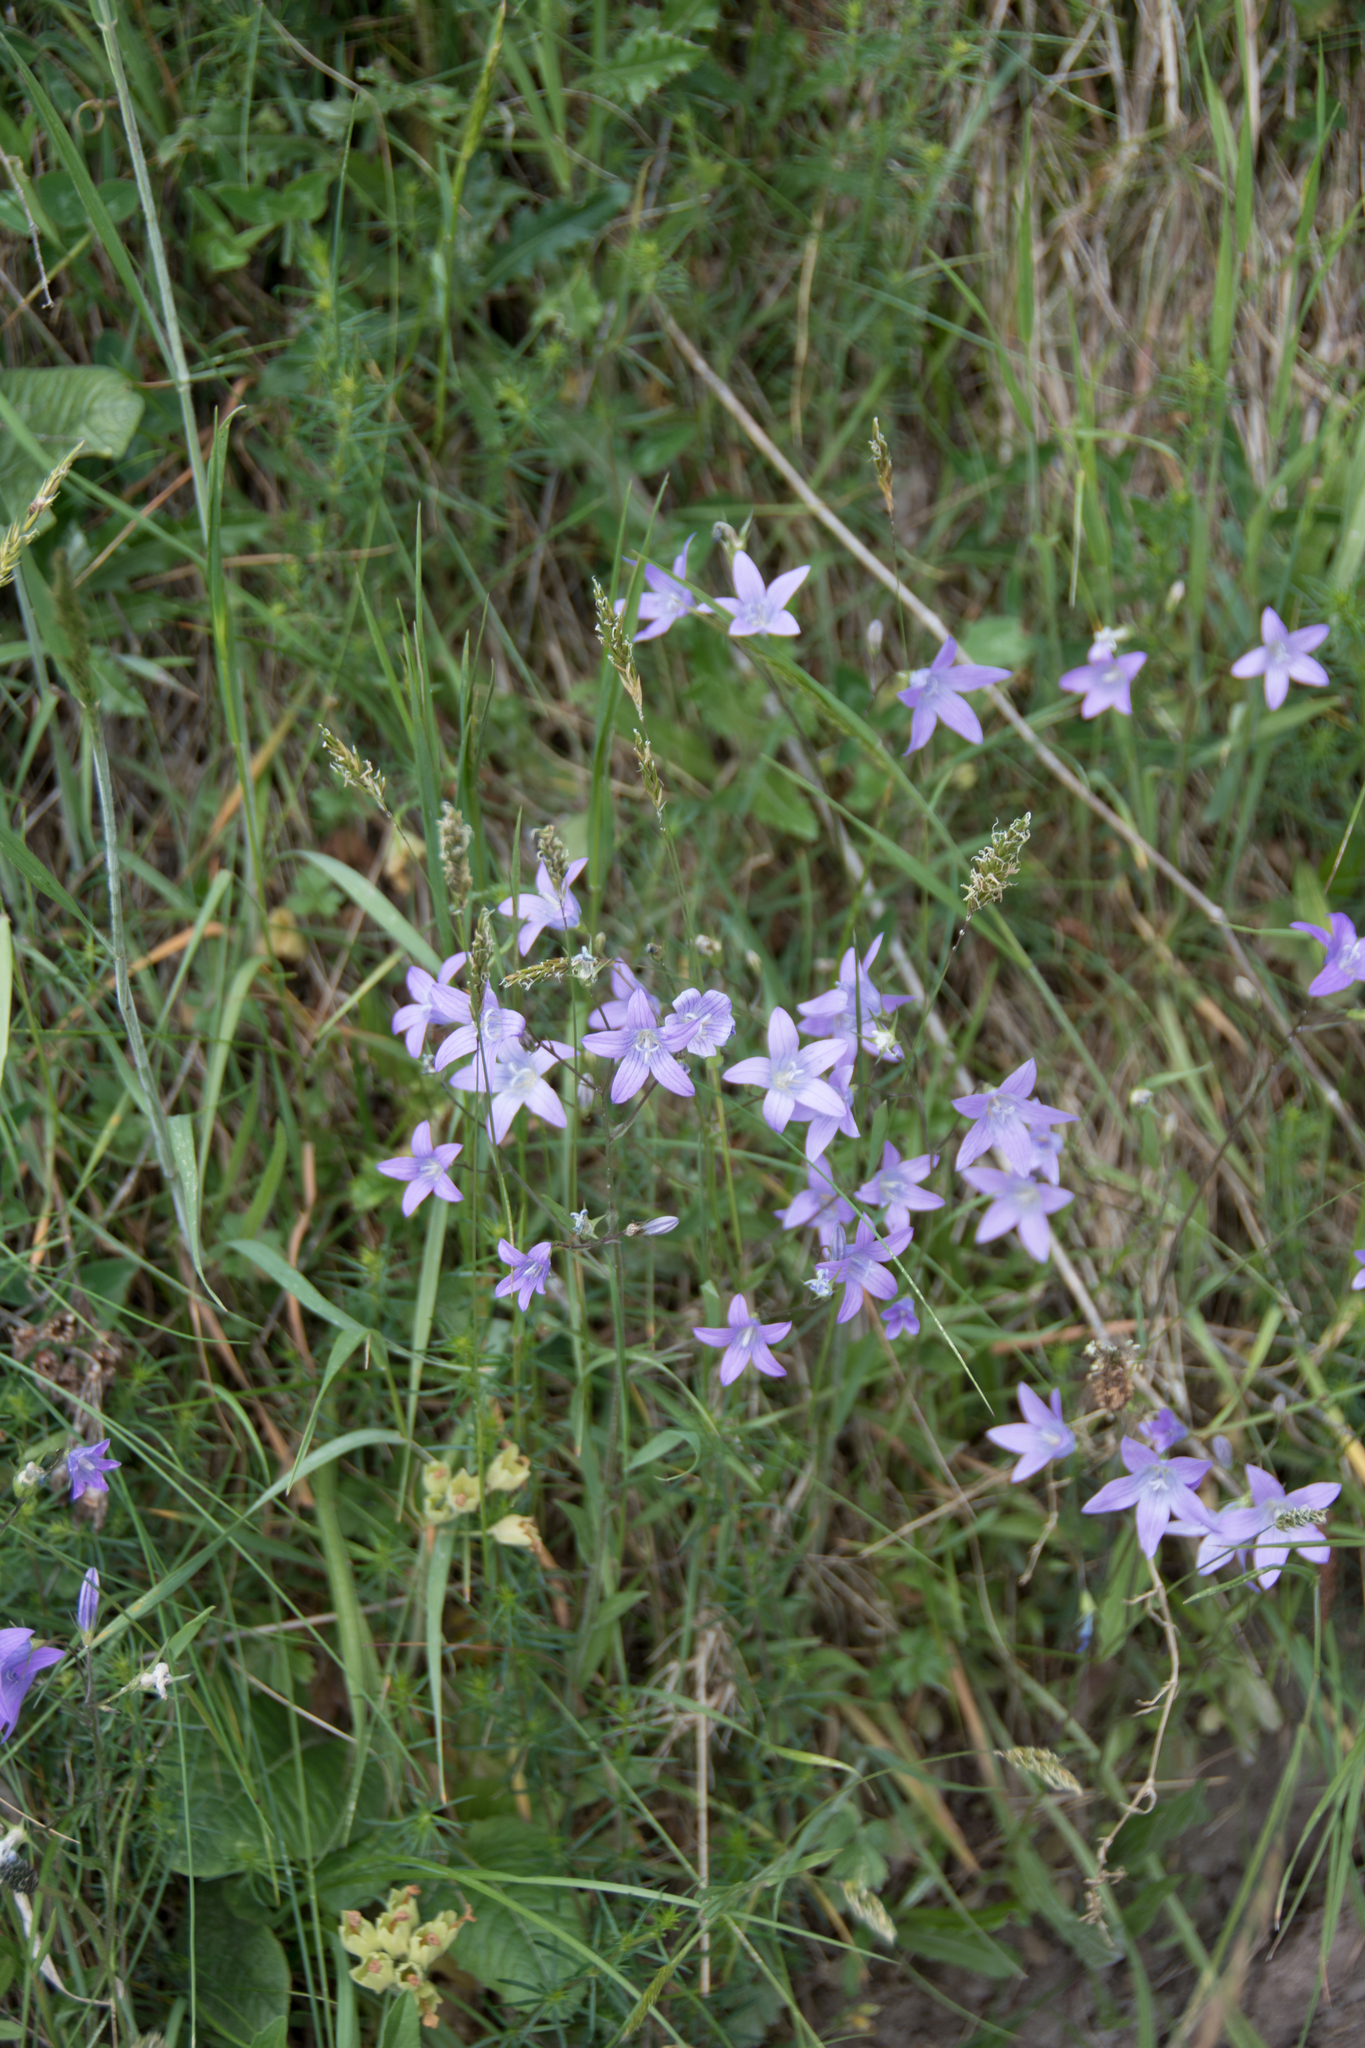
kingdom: Plantae
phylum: Tracheophyta
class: Magnoliopsida
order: Asterales
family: Campanulaceae
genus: Campanula
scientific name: Campanula patula
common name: Spreading bellflower
